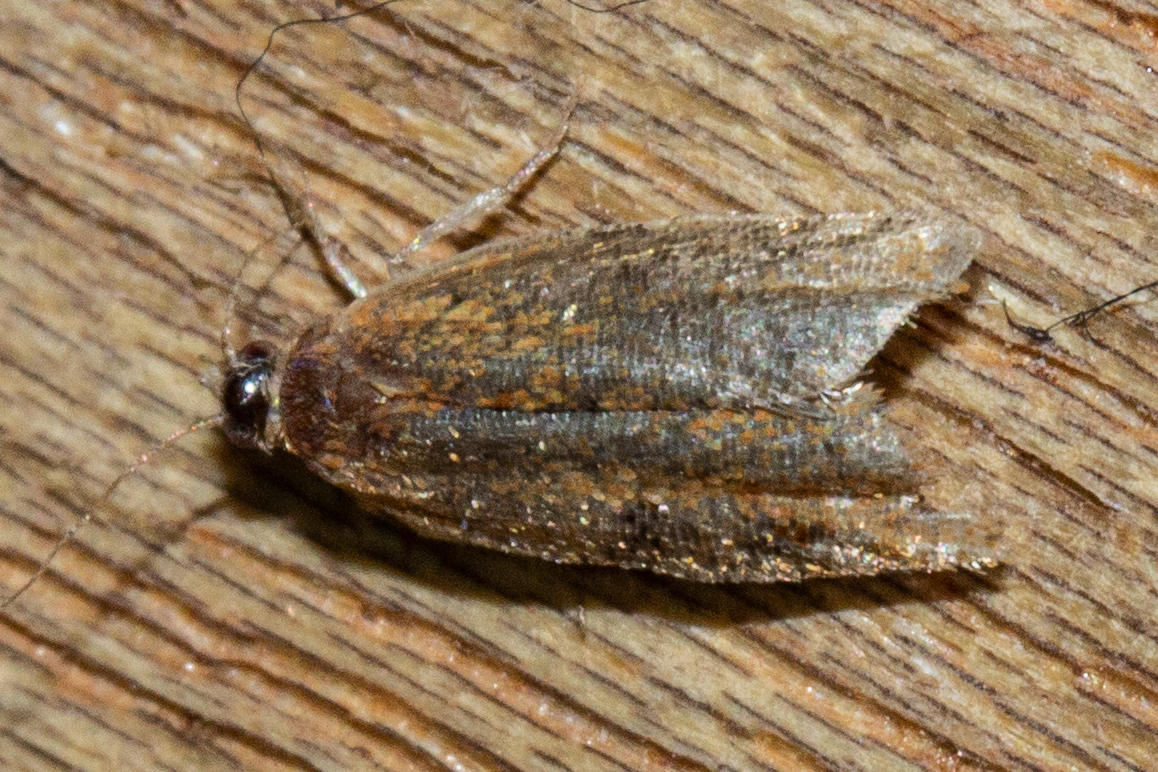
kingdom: Animalia
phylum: Arthropoda
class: Insecta
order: Lepidoptera
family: Tortricidae
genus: Capua
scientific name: Capua semiferana
